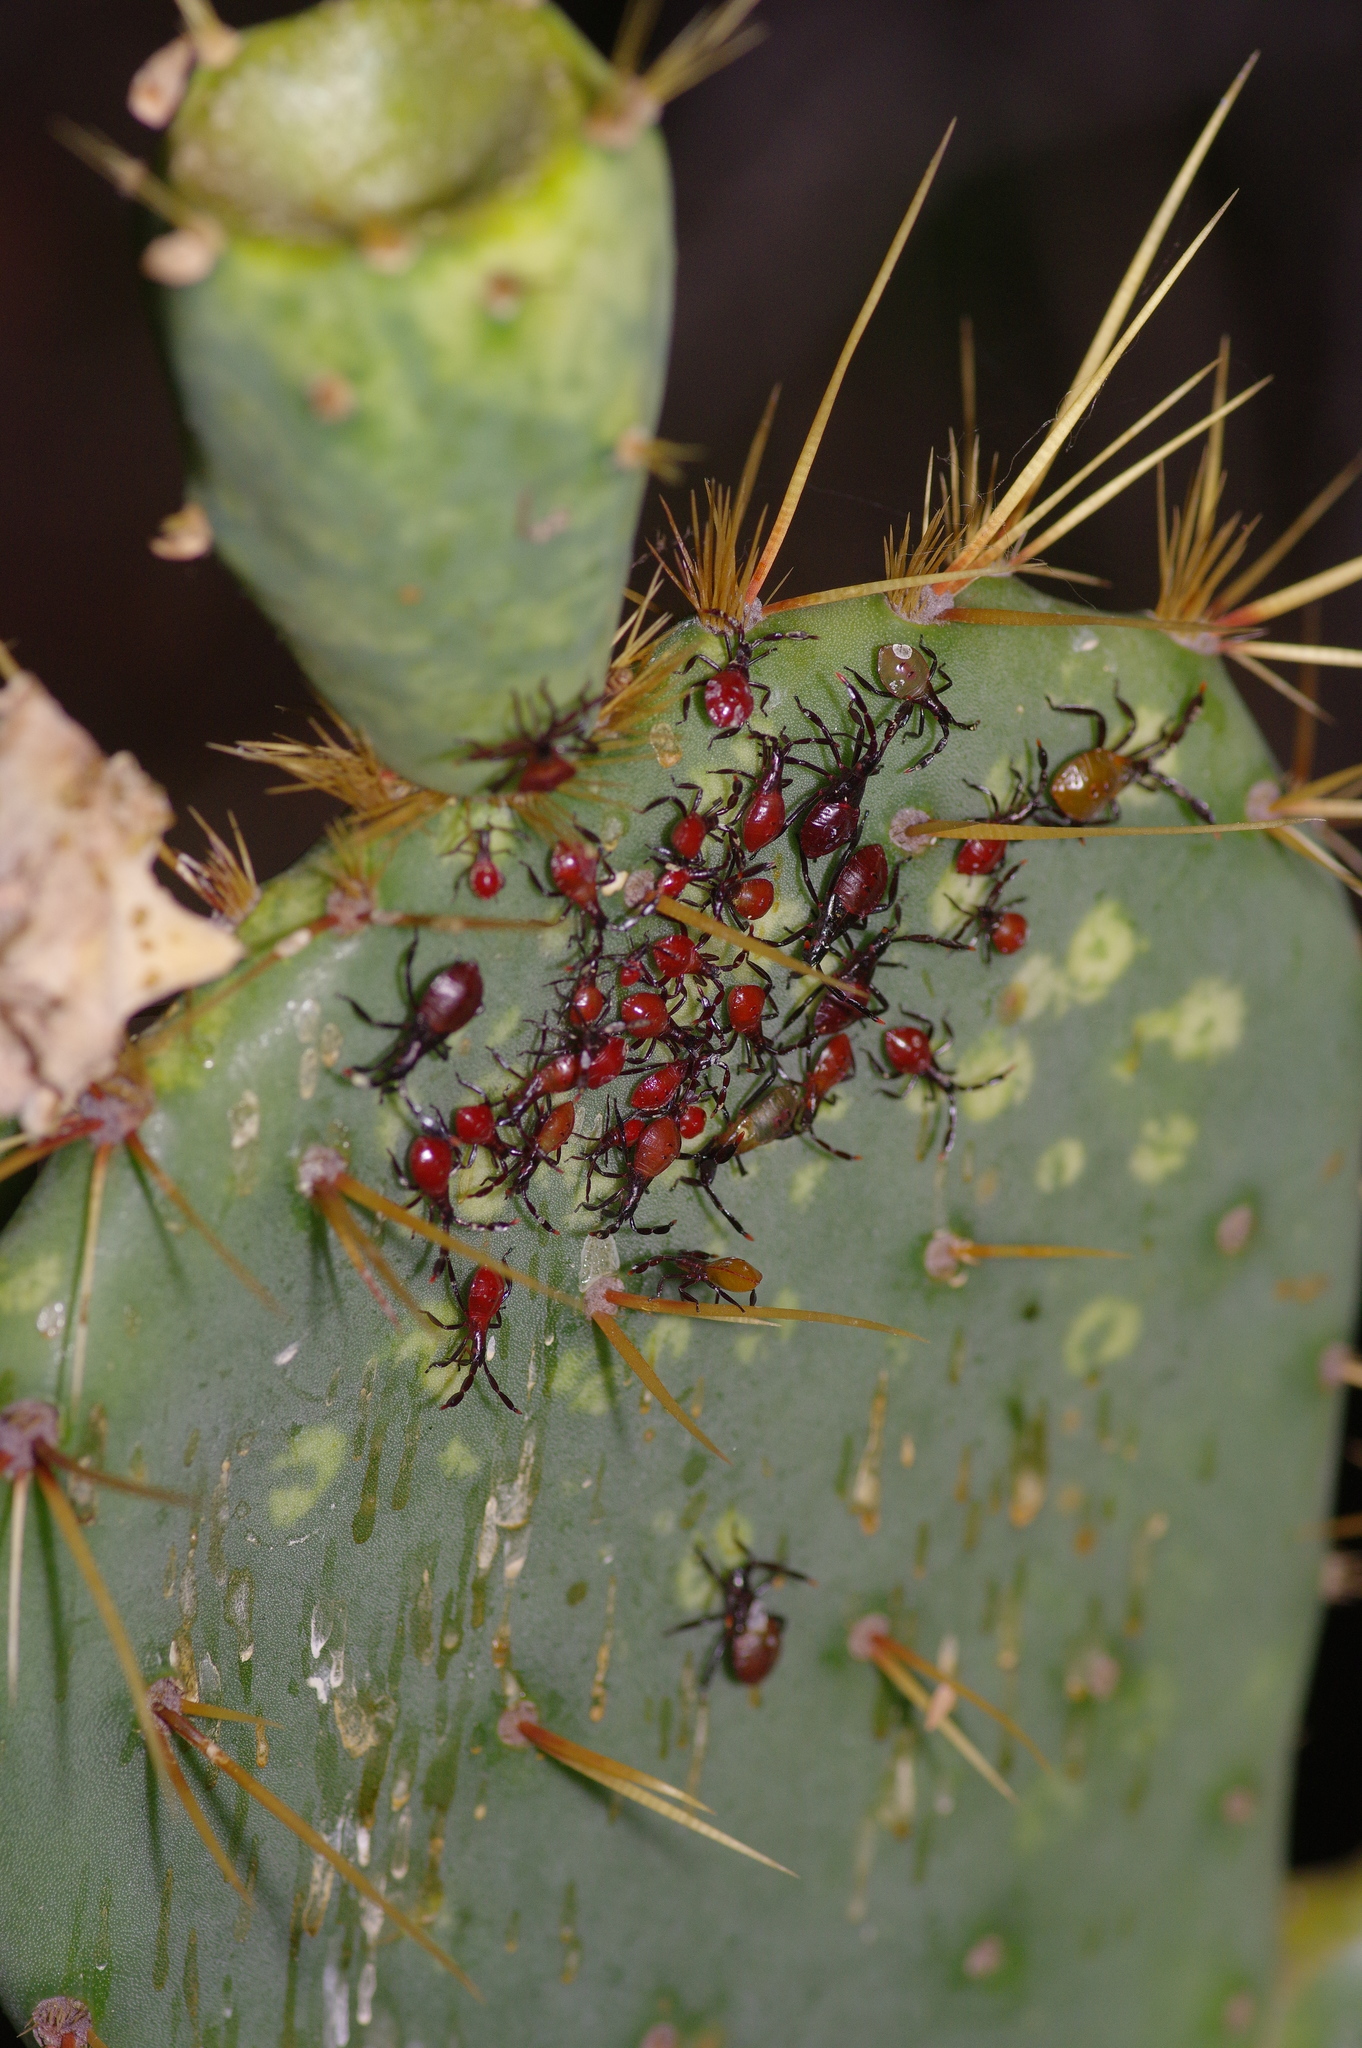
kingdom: Animalia
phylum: Arthropoda
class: Insecta
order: Hemiptera
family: Coreidae
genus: Chelinidea
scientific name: Chelinidea vittiger
